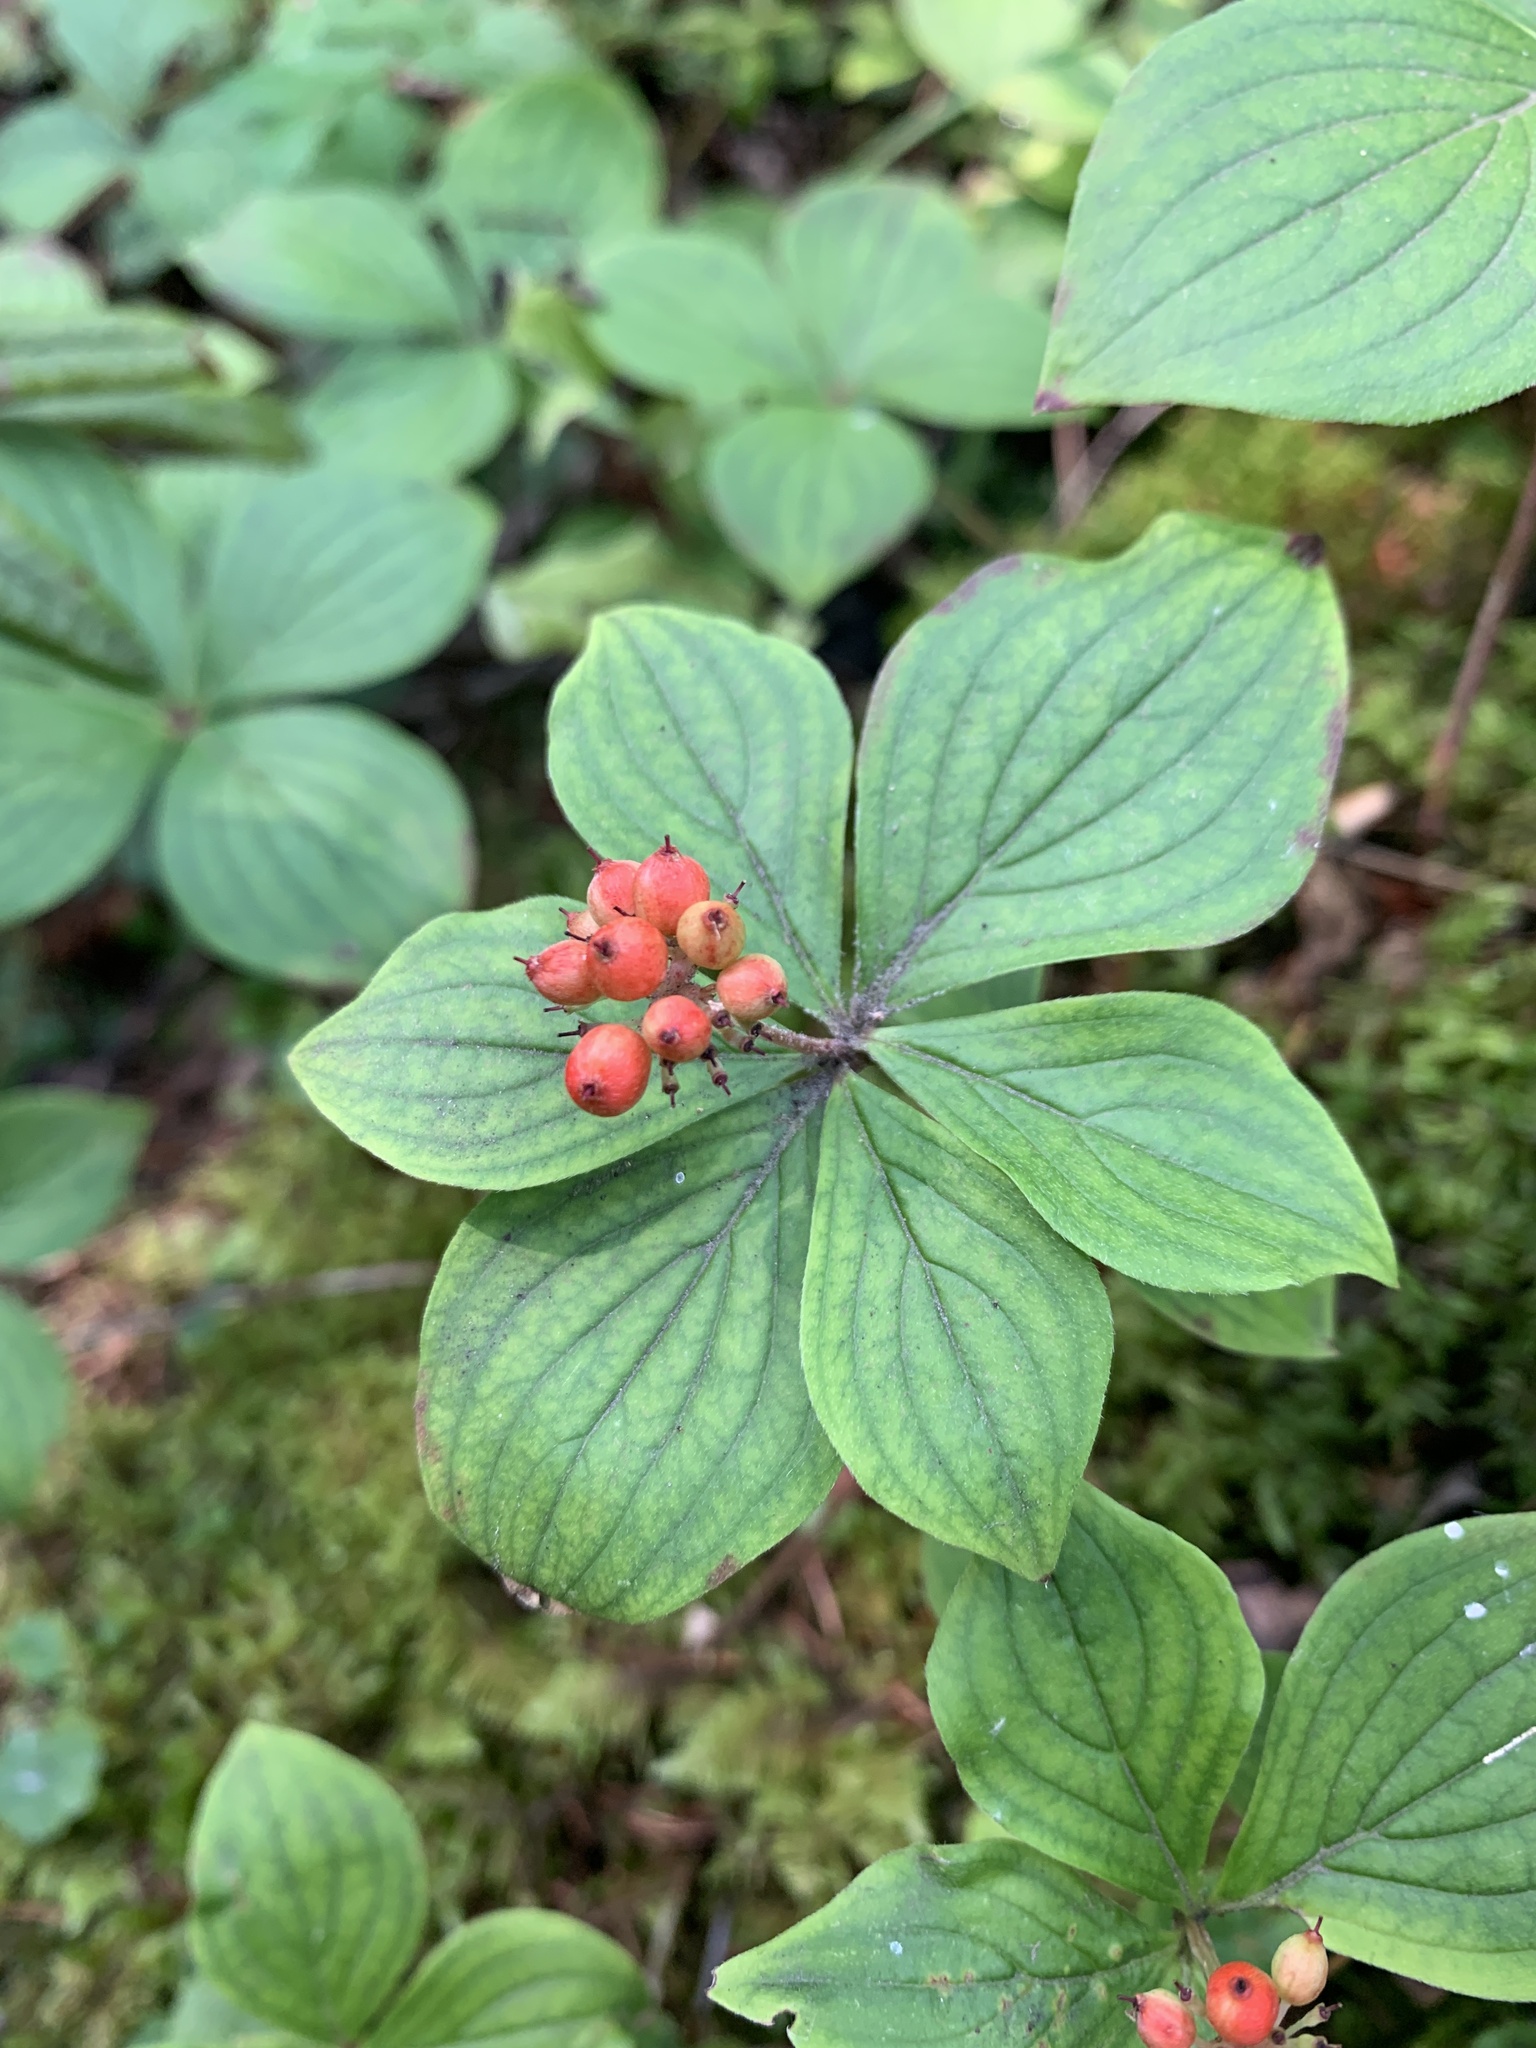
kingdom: Plantae
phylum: Tracheophyta
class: Magnoliopsida
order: Cornales
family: Cornaceae
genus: Cornus
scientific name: Cornus canadensis
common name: Creeping dogwood
